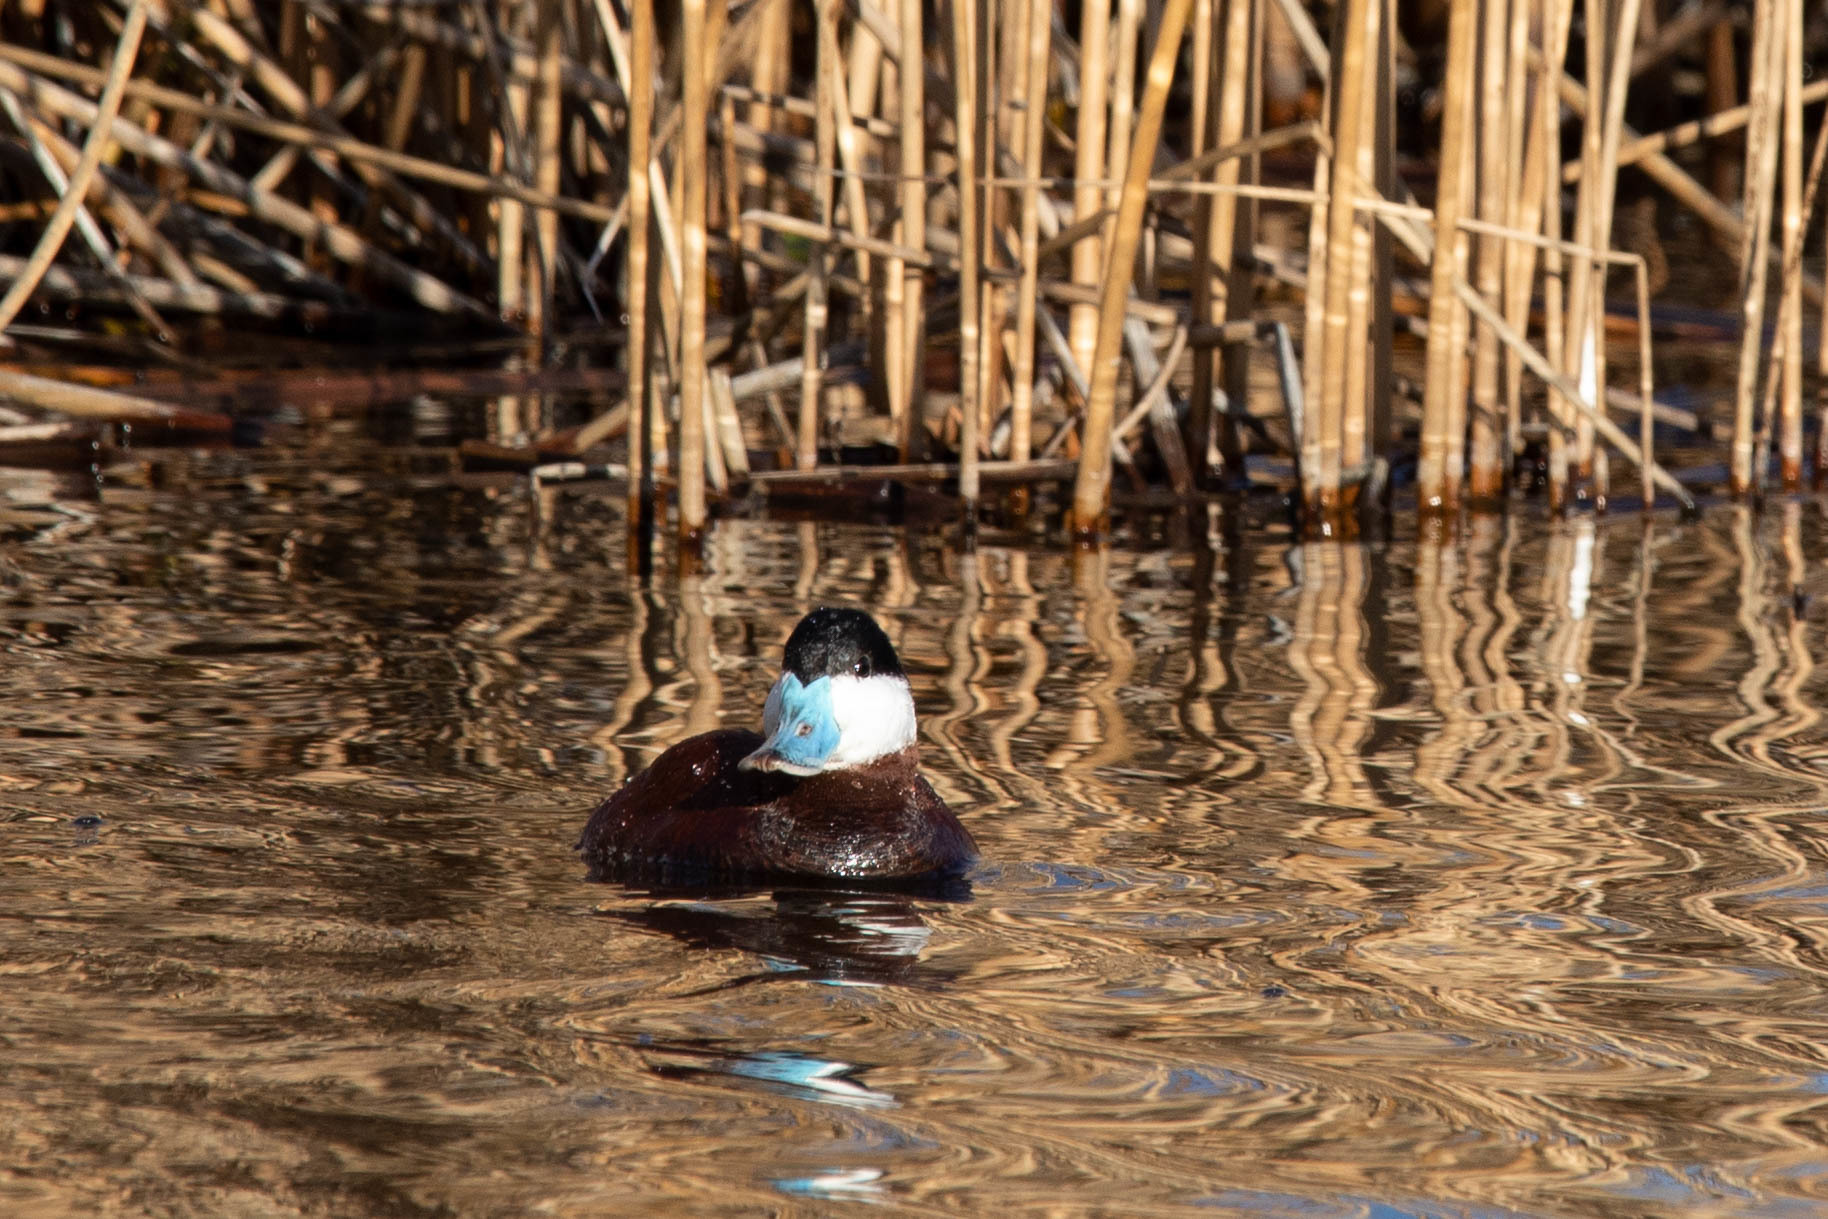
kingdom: Animalia
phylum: Chordata
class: Aves
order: Anseriformes
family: Anatidae
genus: Oxyura
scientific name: Oxyura jamaicensis
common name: Ruddy duck
